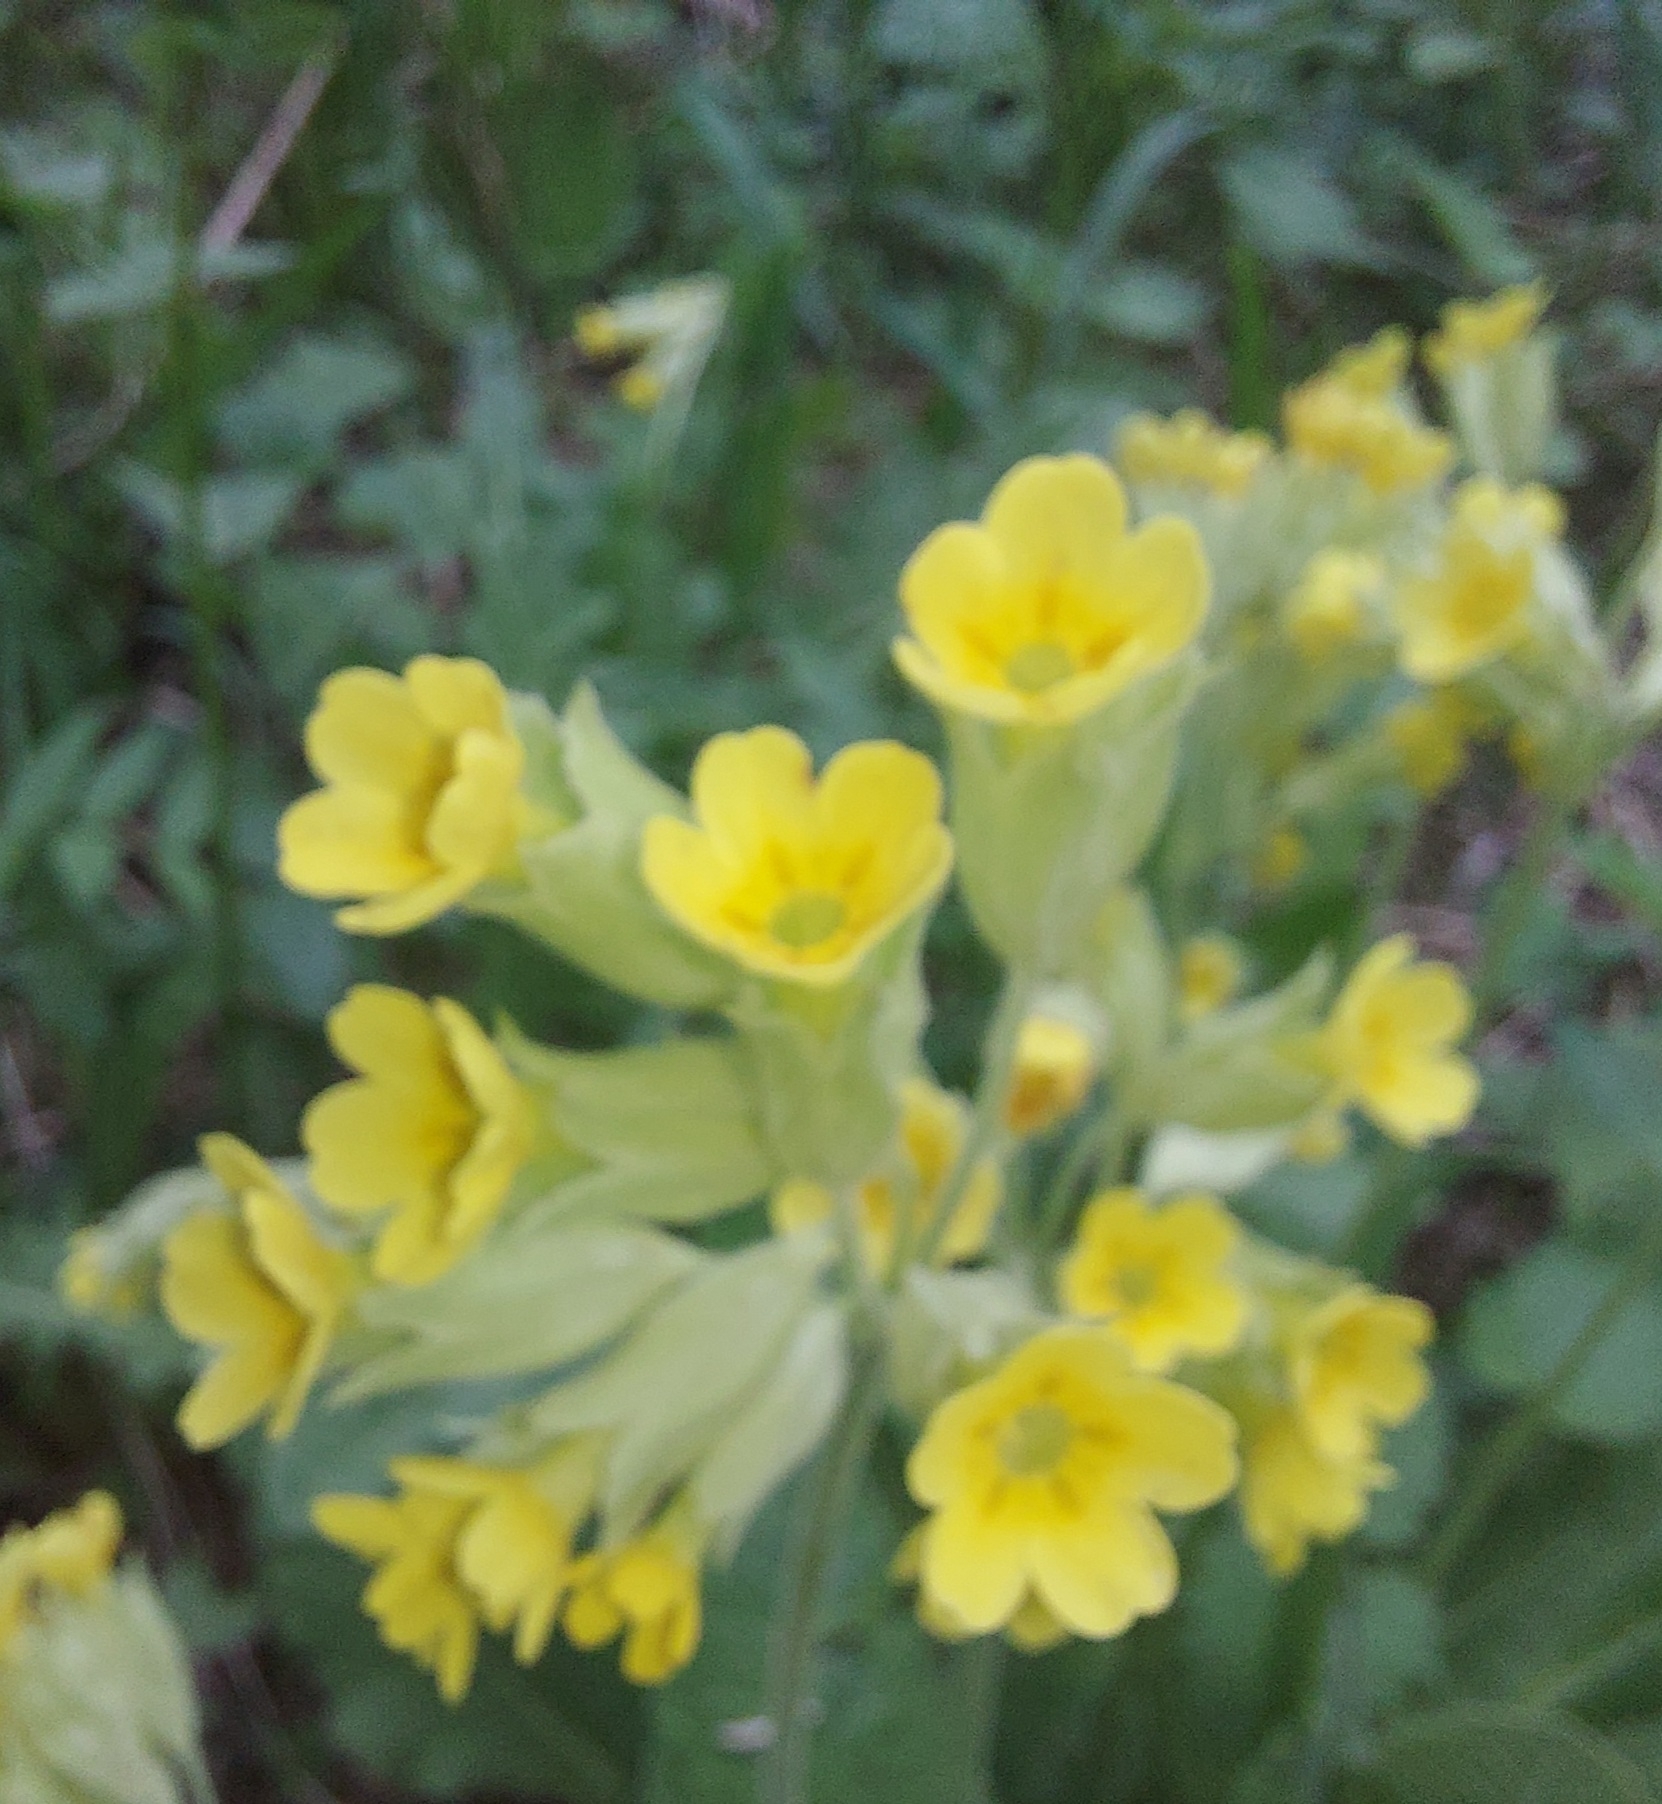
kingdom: Plantae
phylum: Tracheophyta
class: Magnoliopsida
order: Ericales
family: Primulaceae
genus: Primula
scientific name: Primula veris
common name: Cowslip
